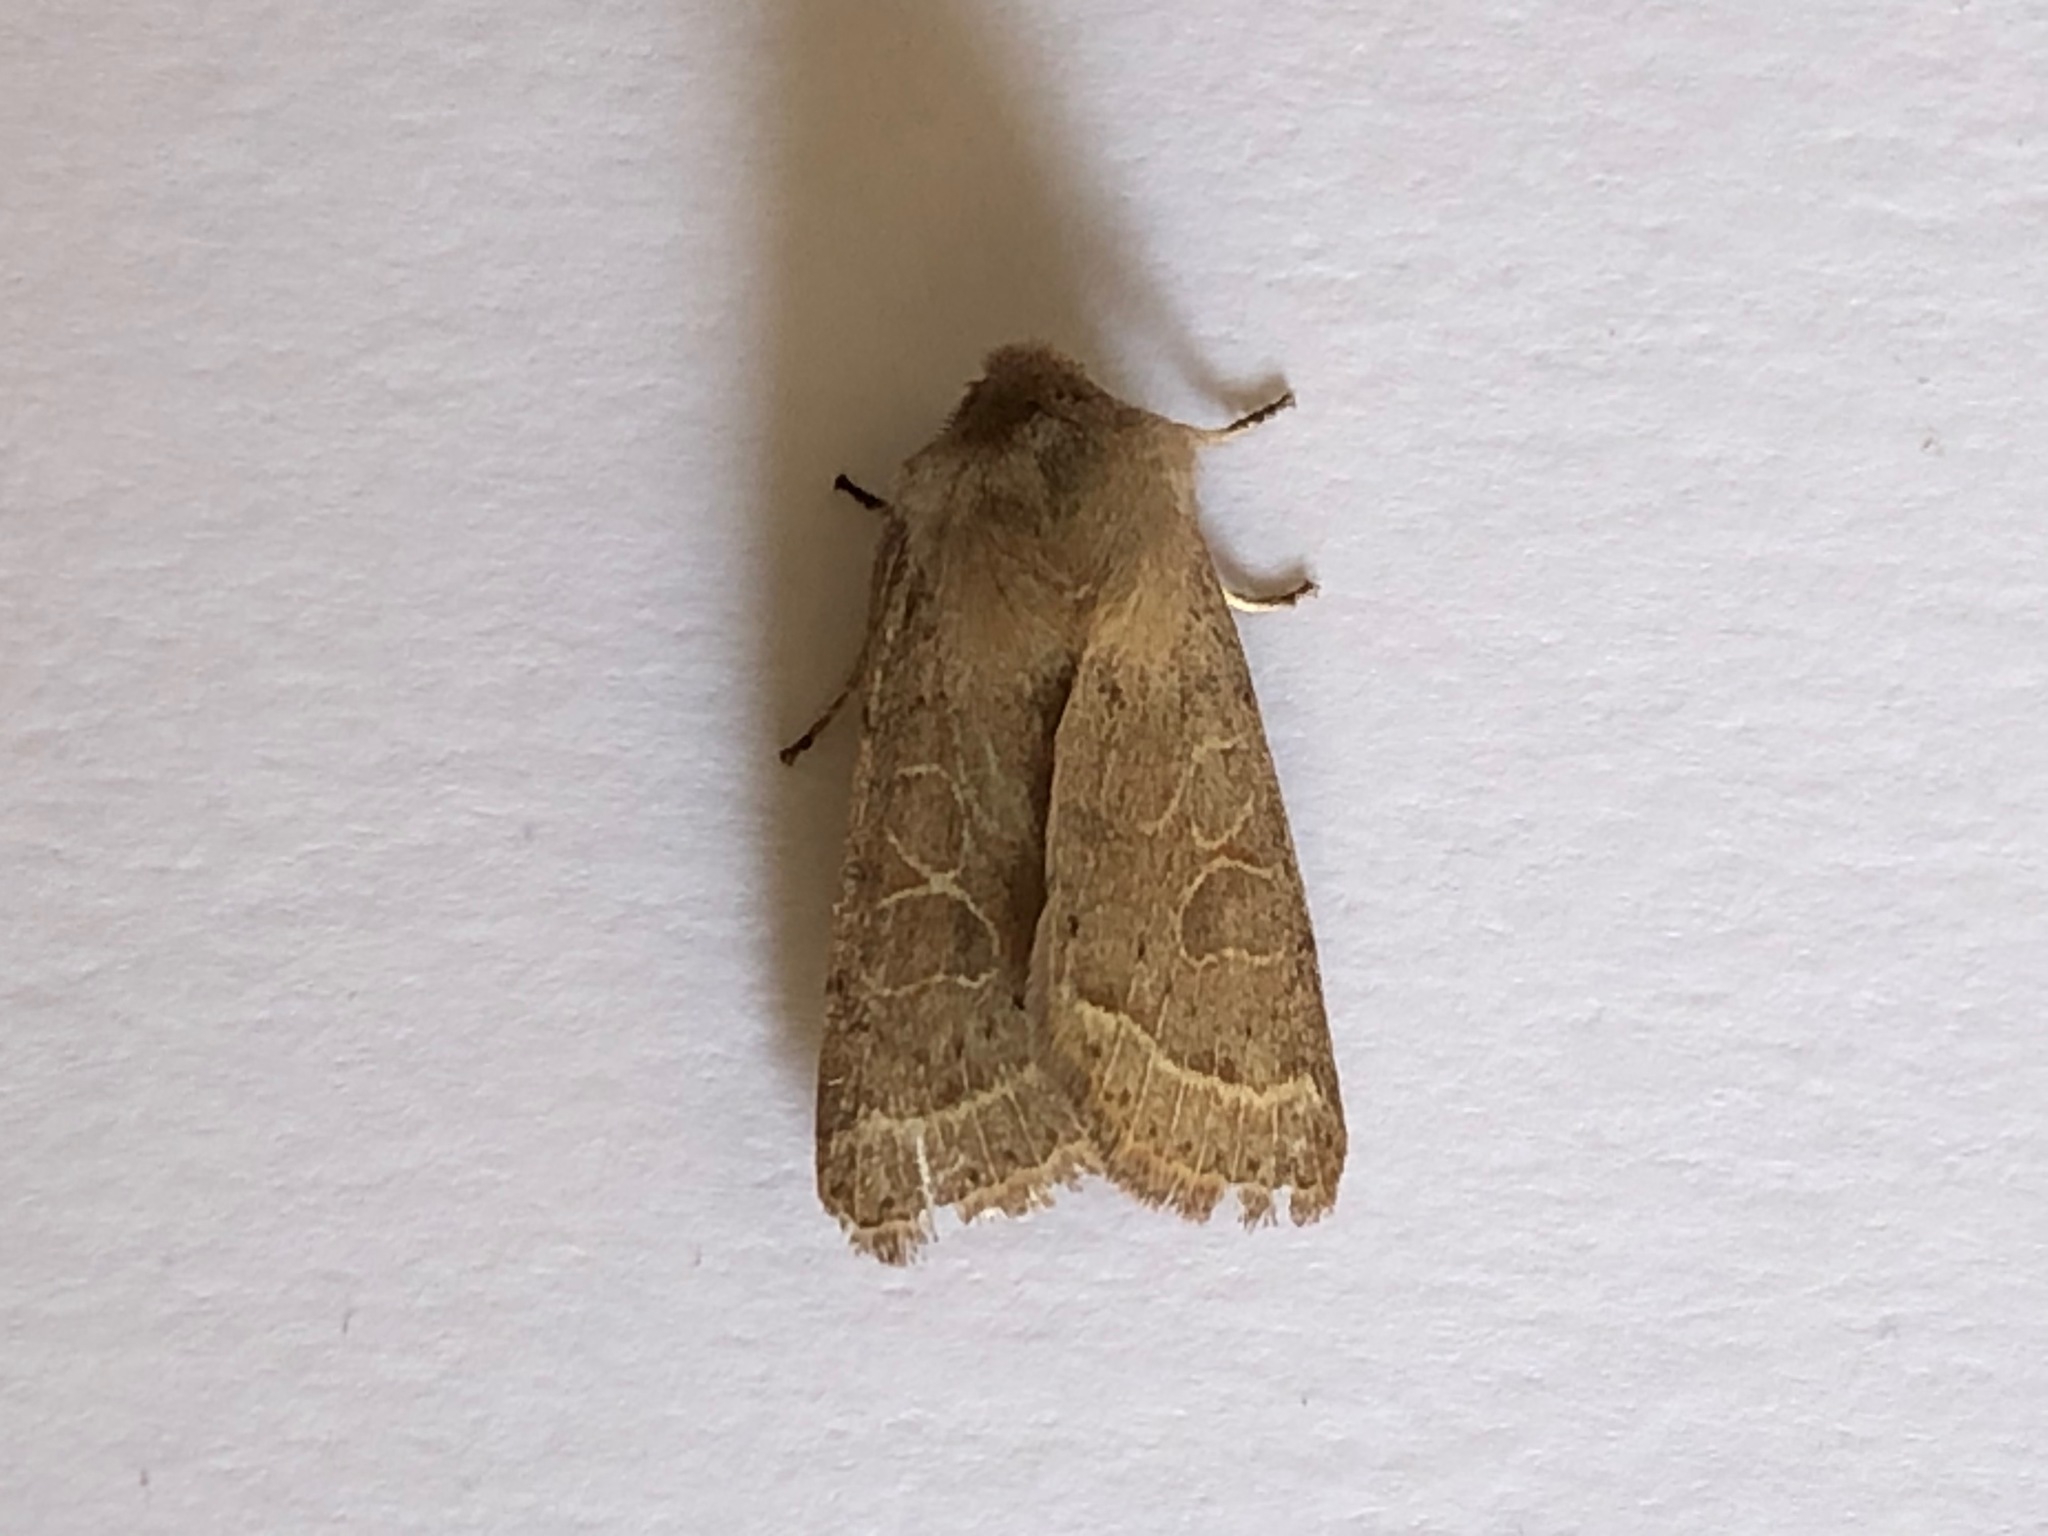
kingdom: Animalia
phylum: Arthropoda
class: Insecta
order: Lepidoptera
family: Noctuidae
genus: Orthosia
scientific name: Orthosia cerasi
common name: Common quaker
